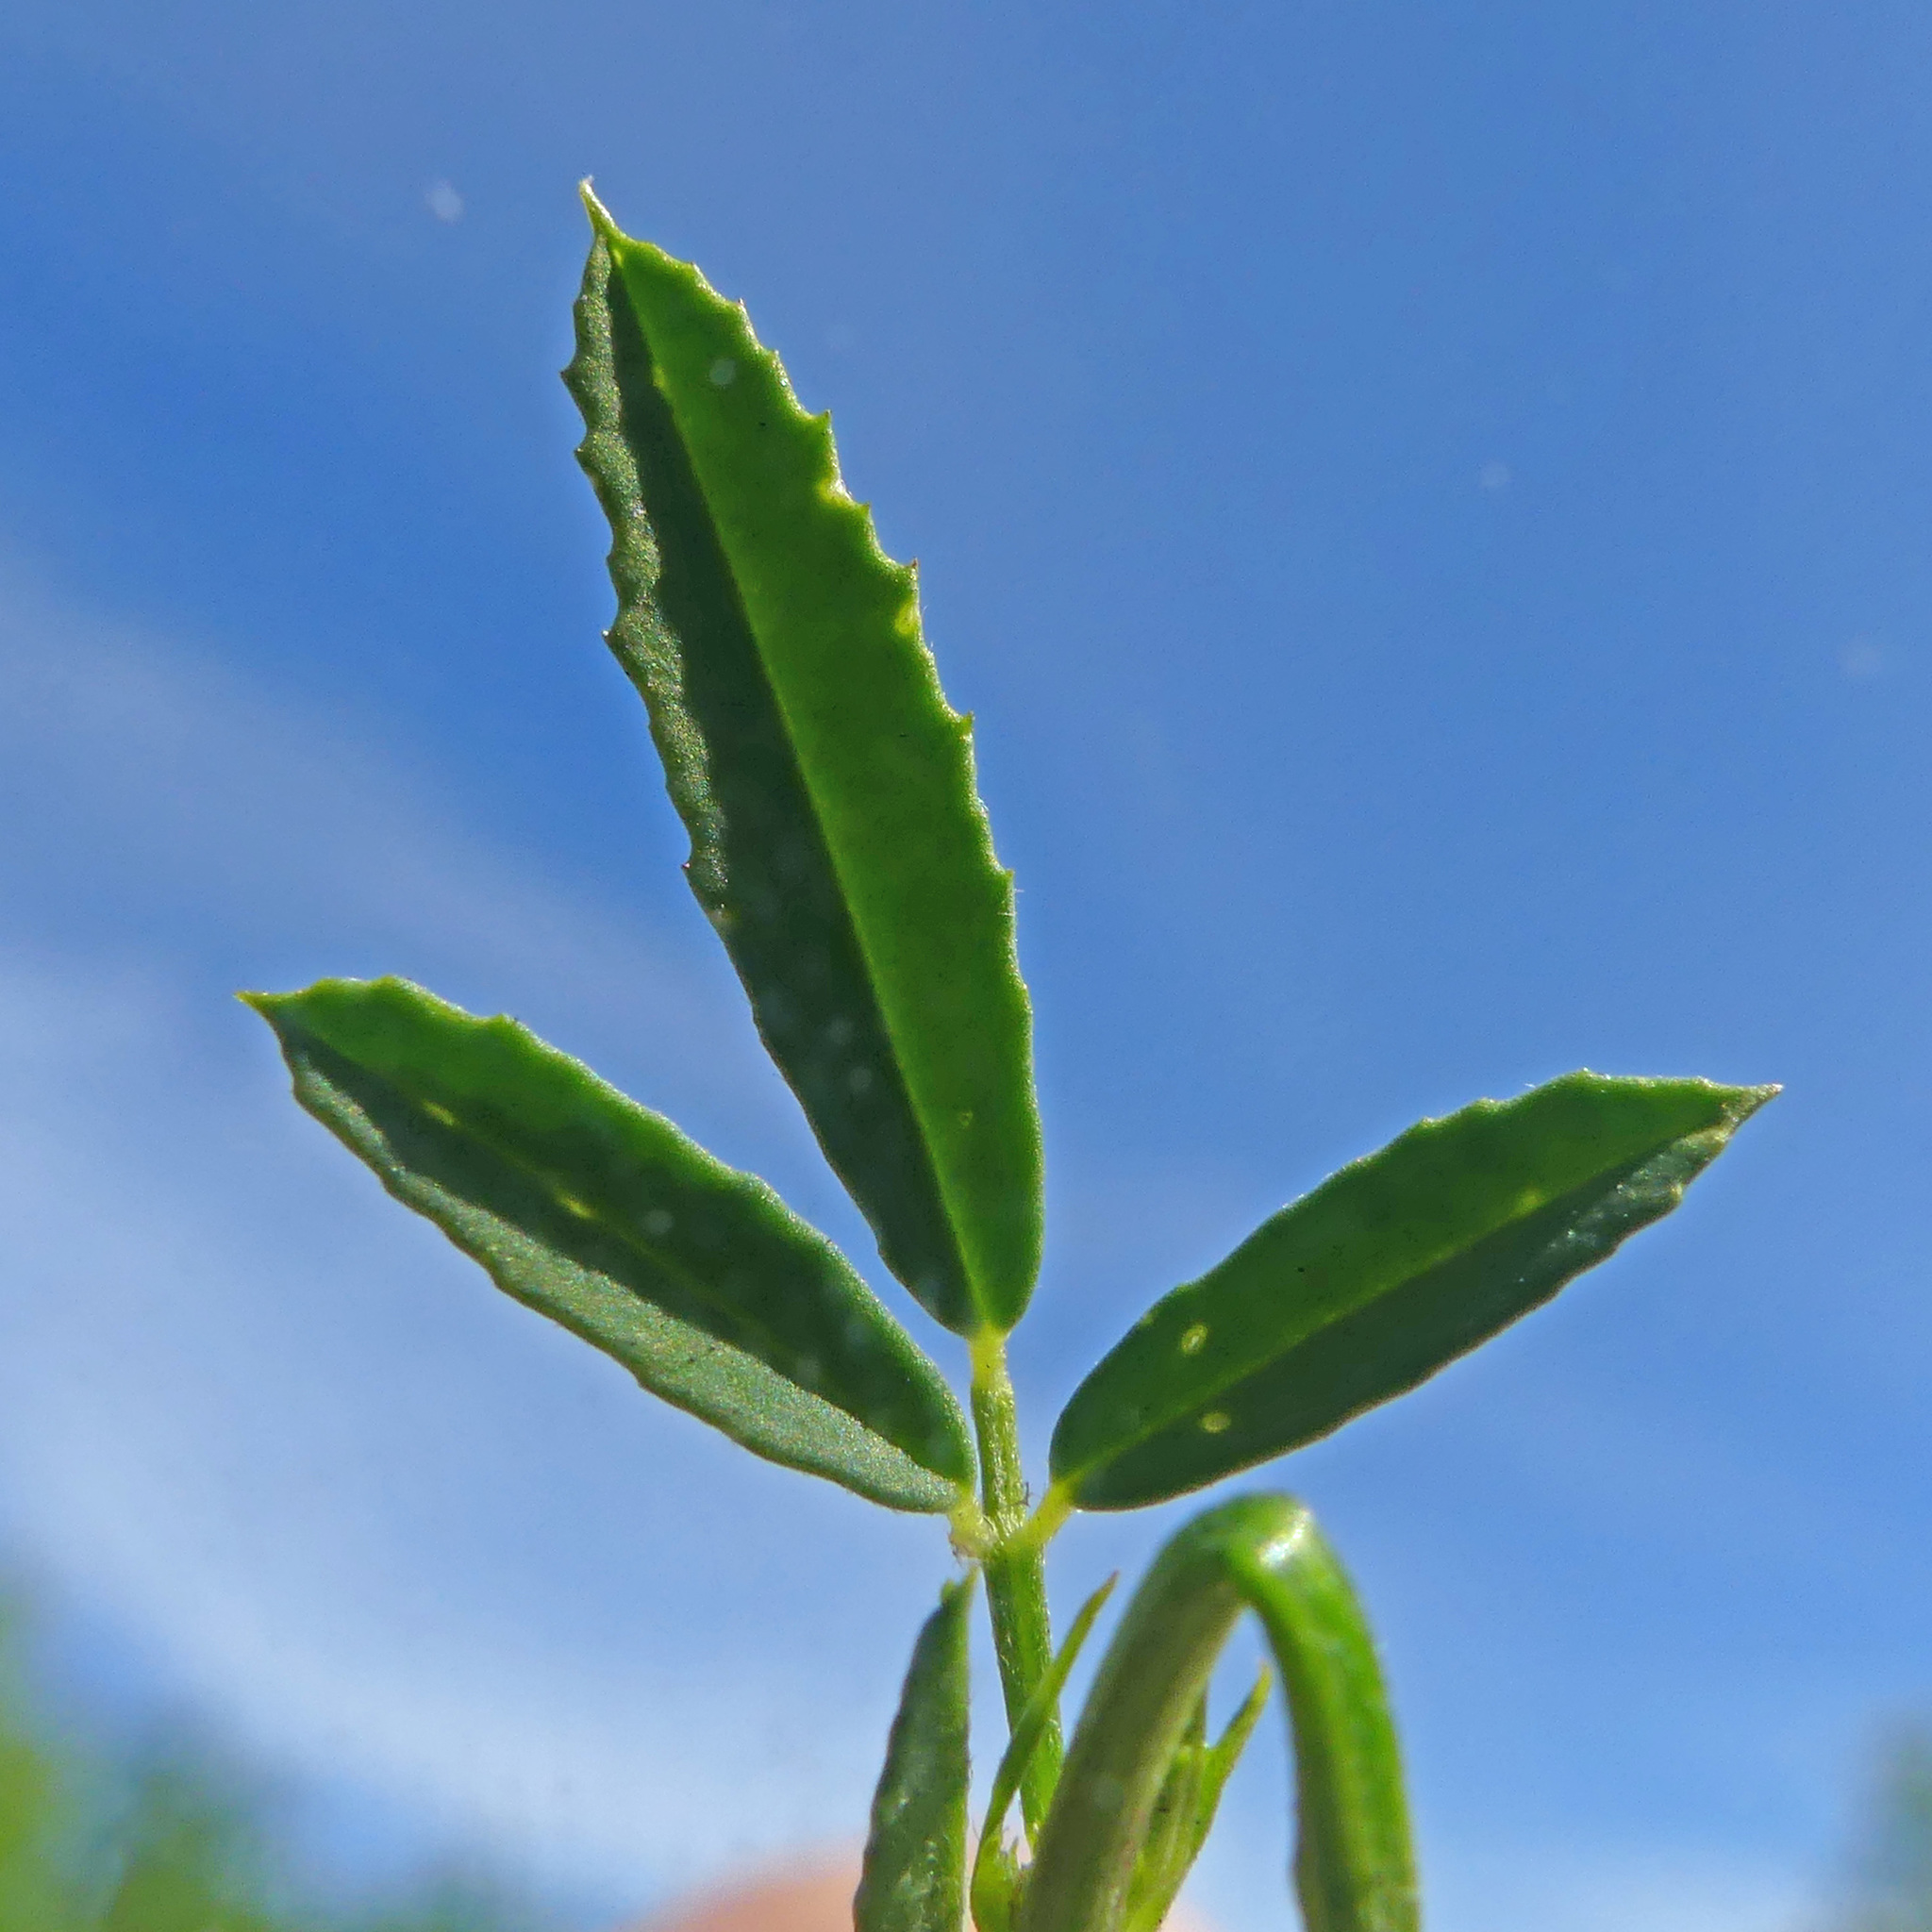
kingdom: Plantae
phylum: Tracheophyta
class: Magnoliopsida
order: Fabales
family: Fabaceae
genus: Melilotus
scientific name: Melilotus officinalis
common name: Sweetclover
